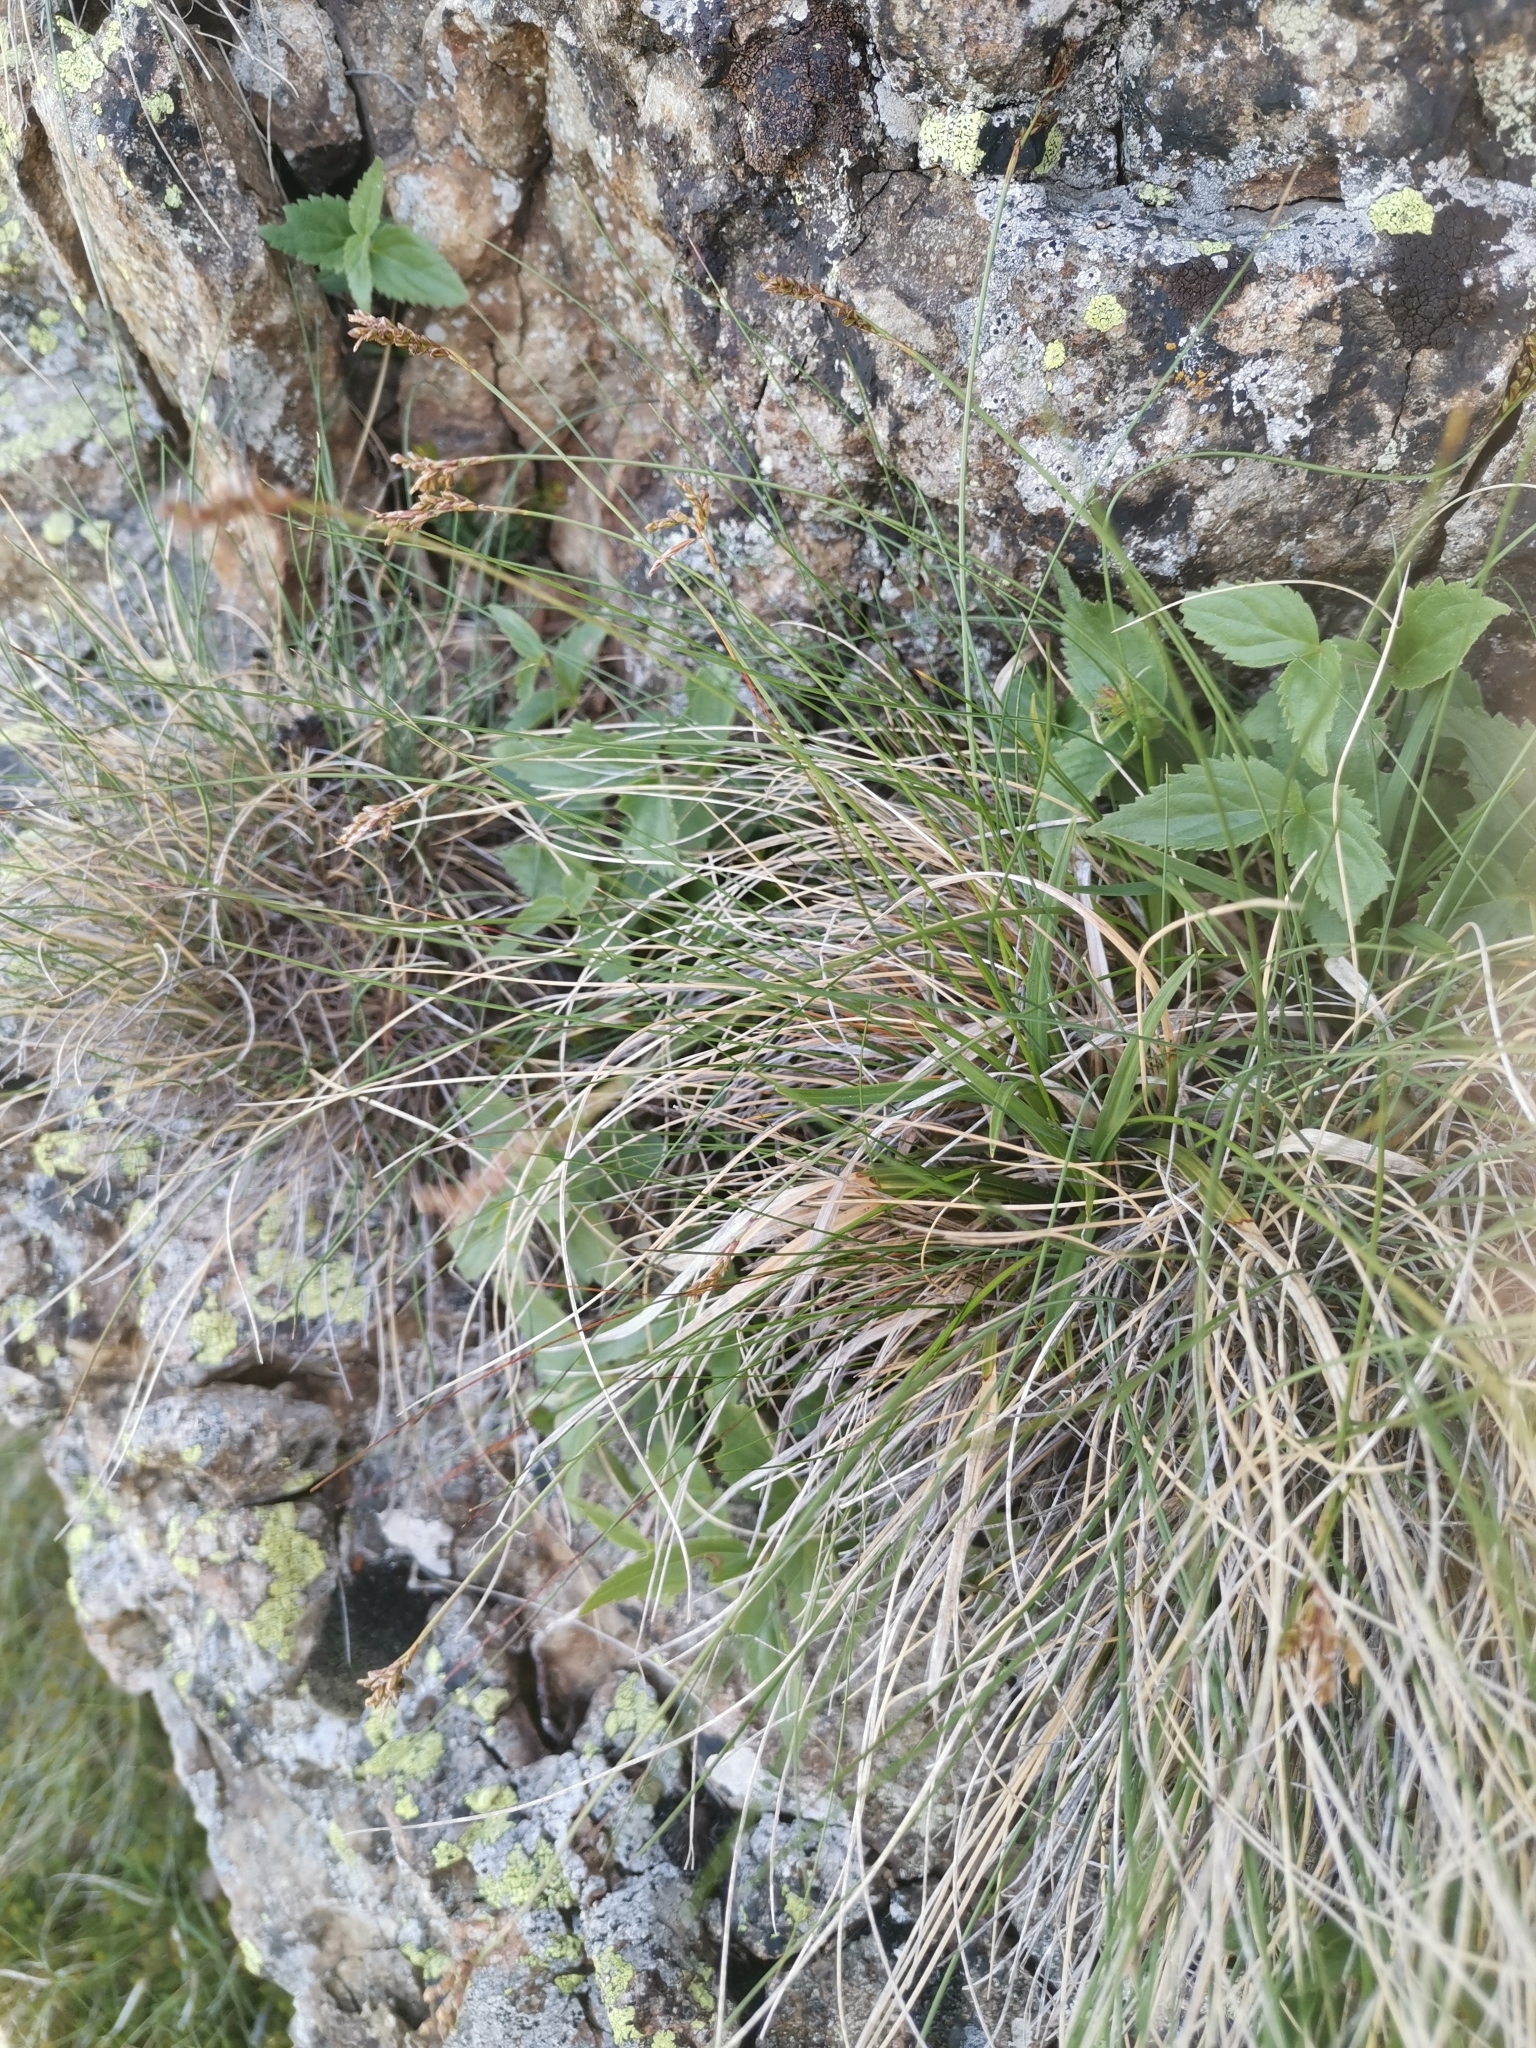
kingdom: Plantae
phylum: Tracheophyta
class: Liliopsida
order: Poales
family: Cyperaceae
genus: Carex
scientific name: Carex ornithopoda
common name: Bird's-foot sedge
